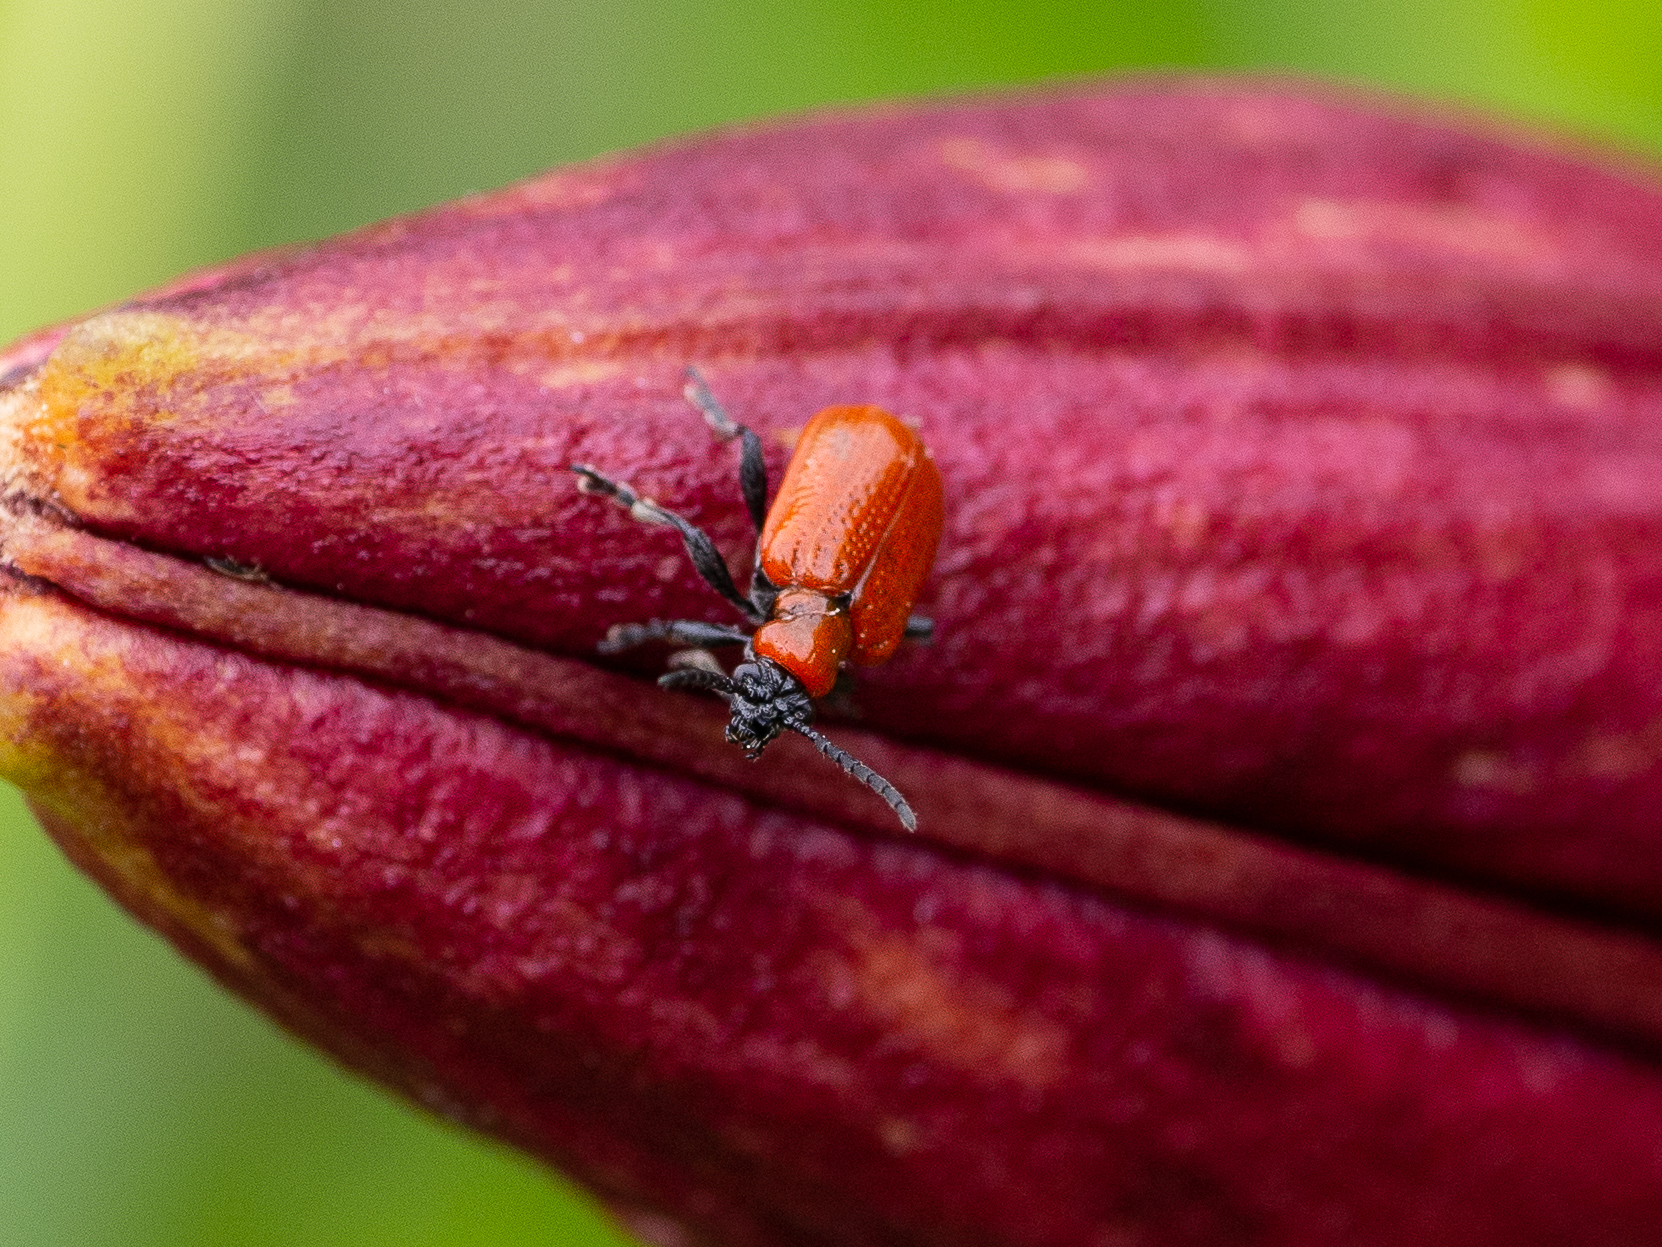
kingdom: Animalia
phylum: Arthropoda
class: Insecta
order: Coleoptera
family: Chrysomelidae
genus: Lilioceris
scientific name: Lilioceris lilii
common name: Lily beetle
